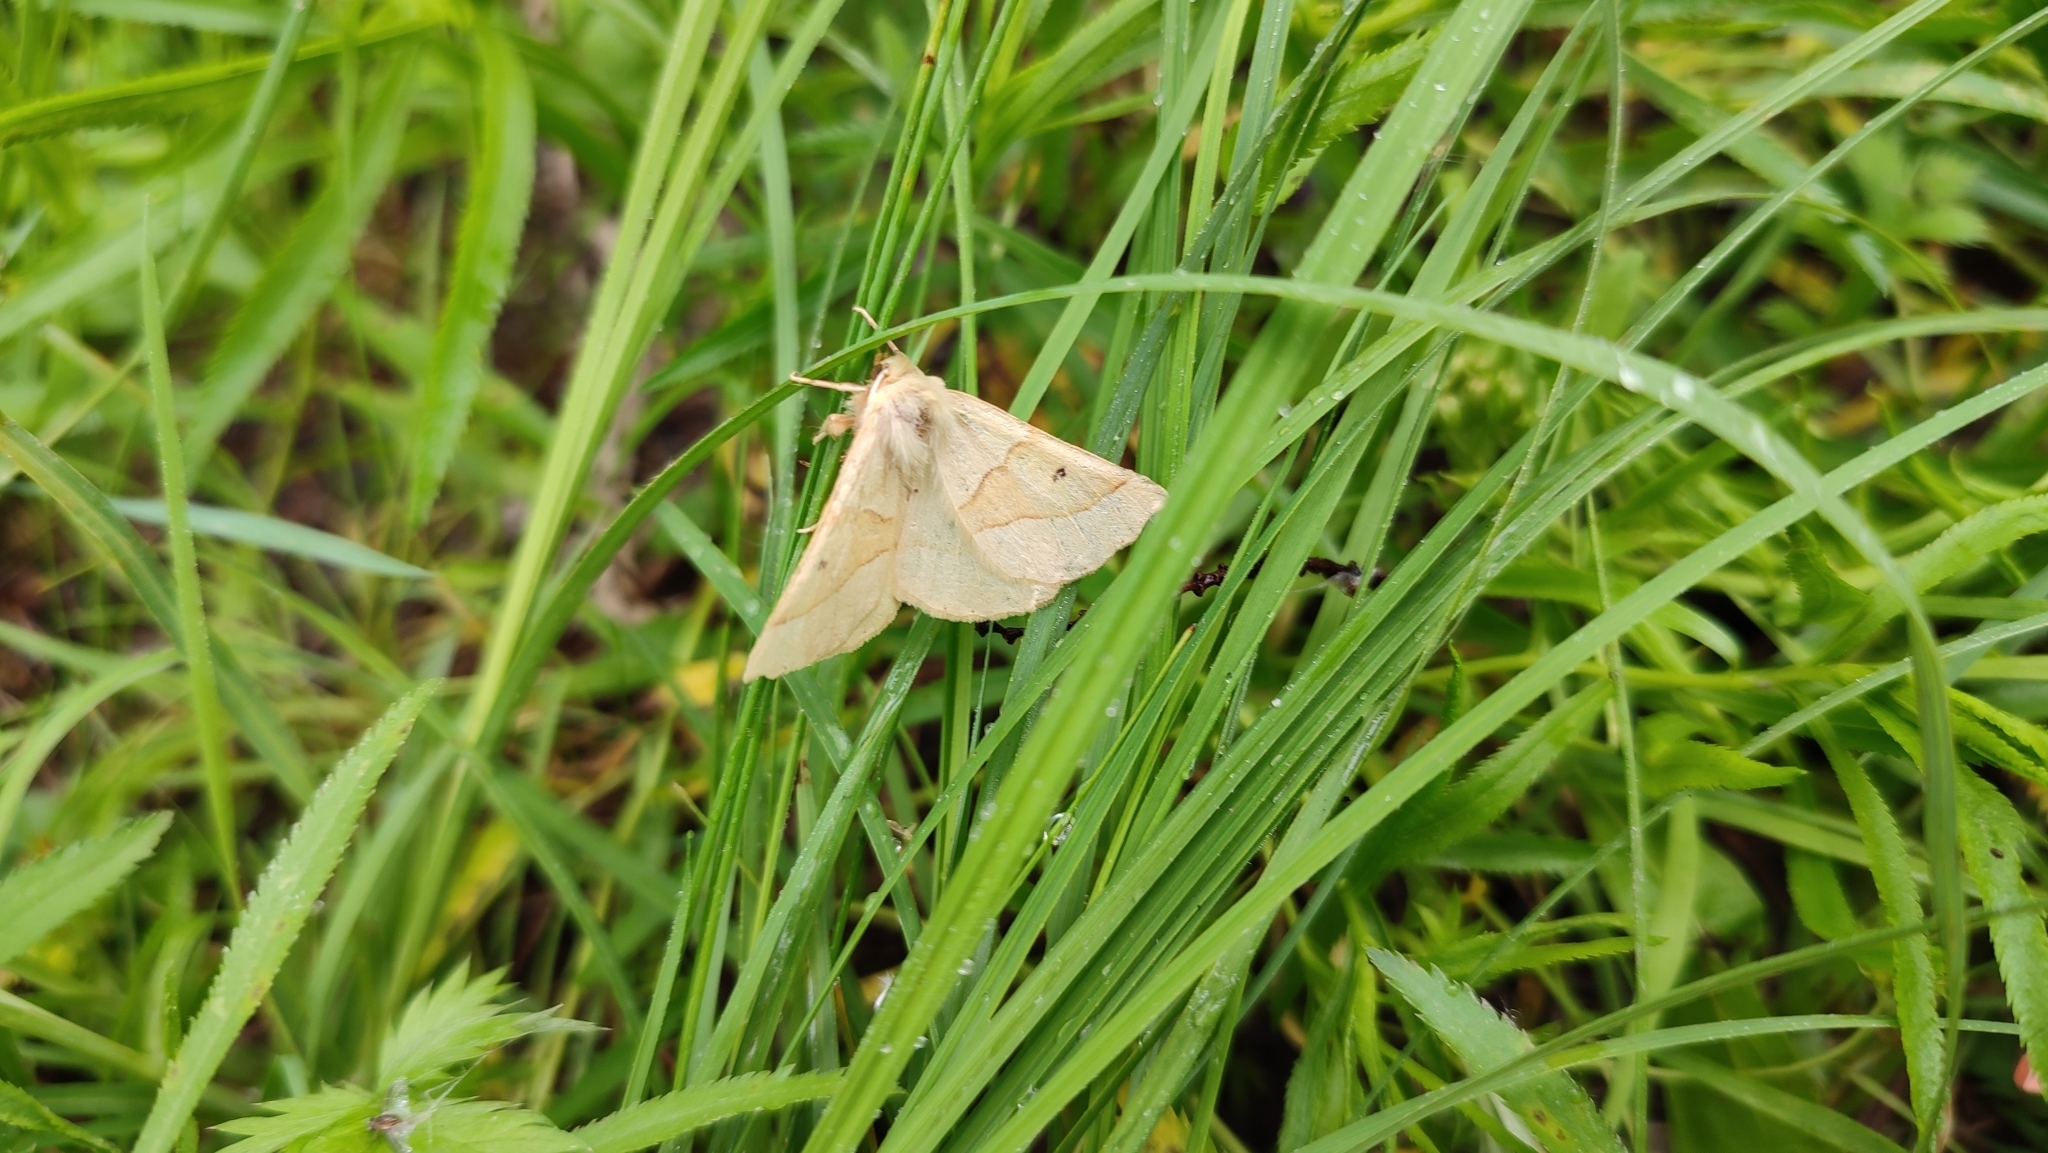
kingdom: Animalia
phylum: Arthropoda
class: Insecta
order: Lepidoptera
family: Geometridae
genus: Crocallis
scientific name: Crocallis elinguaria
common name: Scalloped oak
